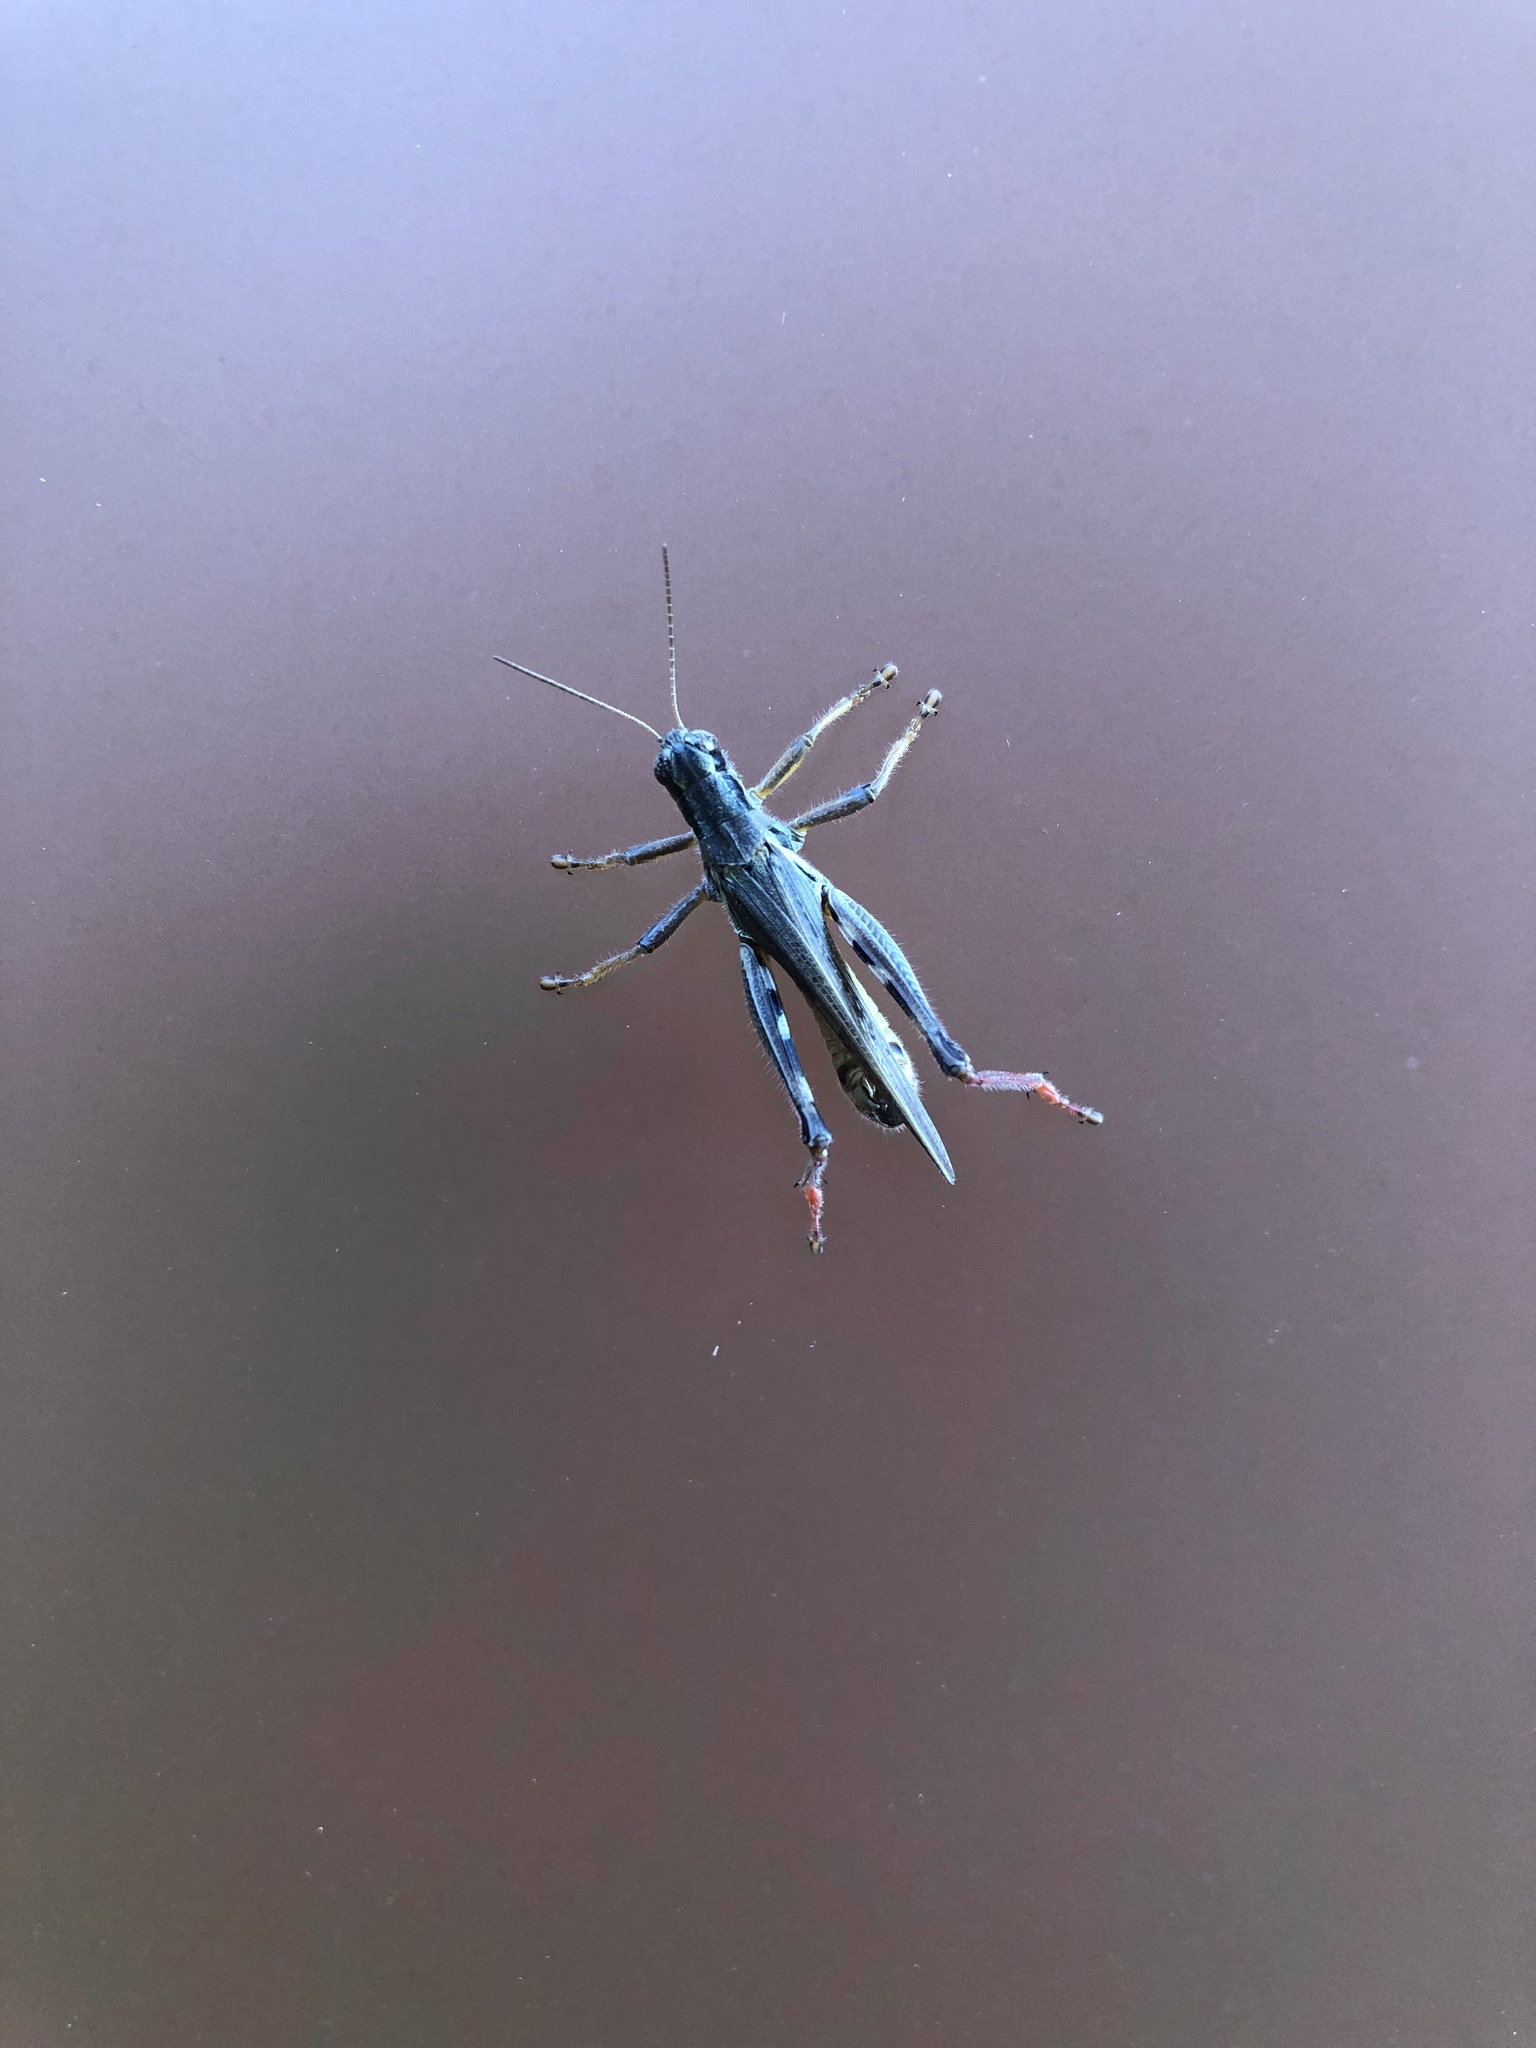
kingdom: Animalia
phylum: Arthropoda
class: Insecta
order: Orthoptera
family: Acrididae
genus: Melanoplus
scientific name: Melanoplus femurrubrum
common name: Red-legged grasshopper
